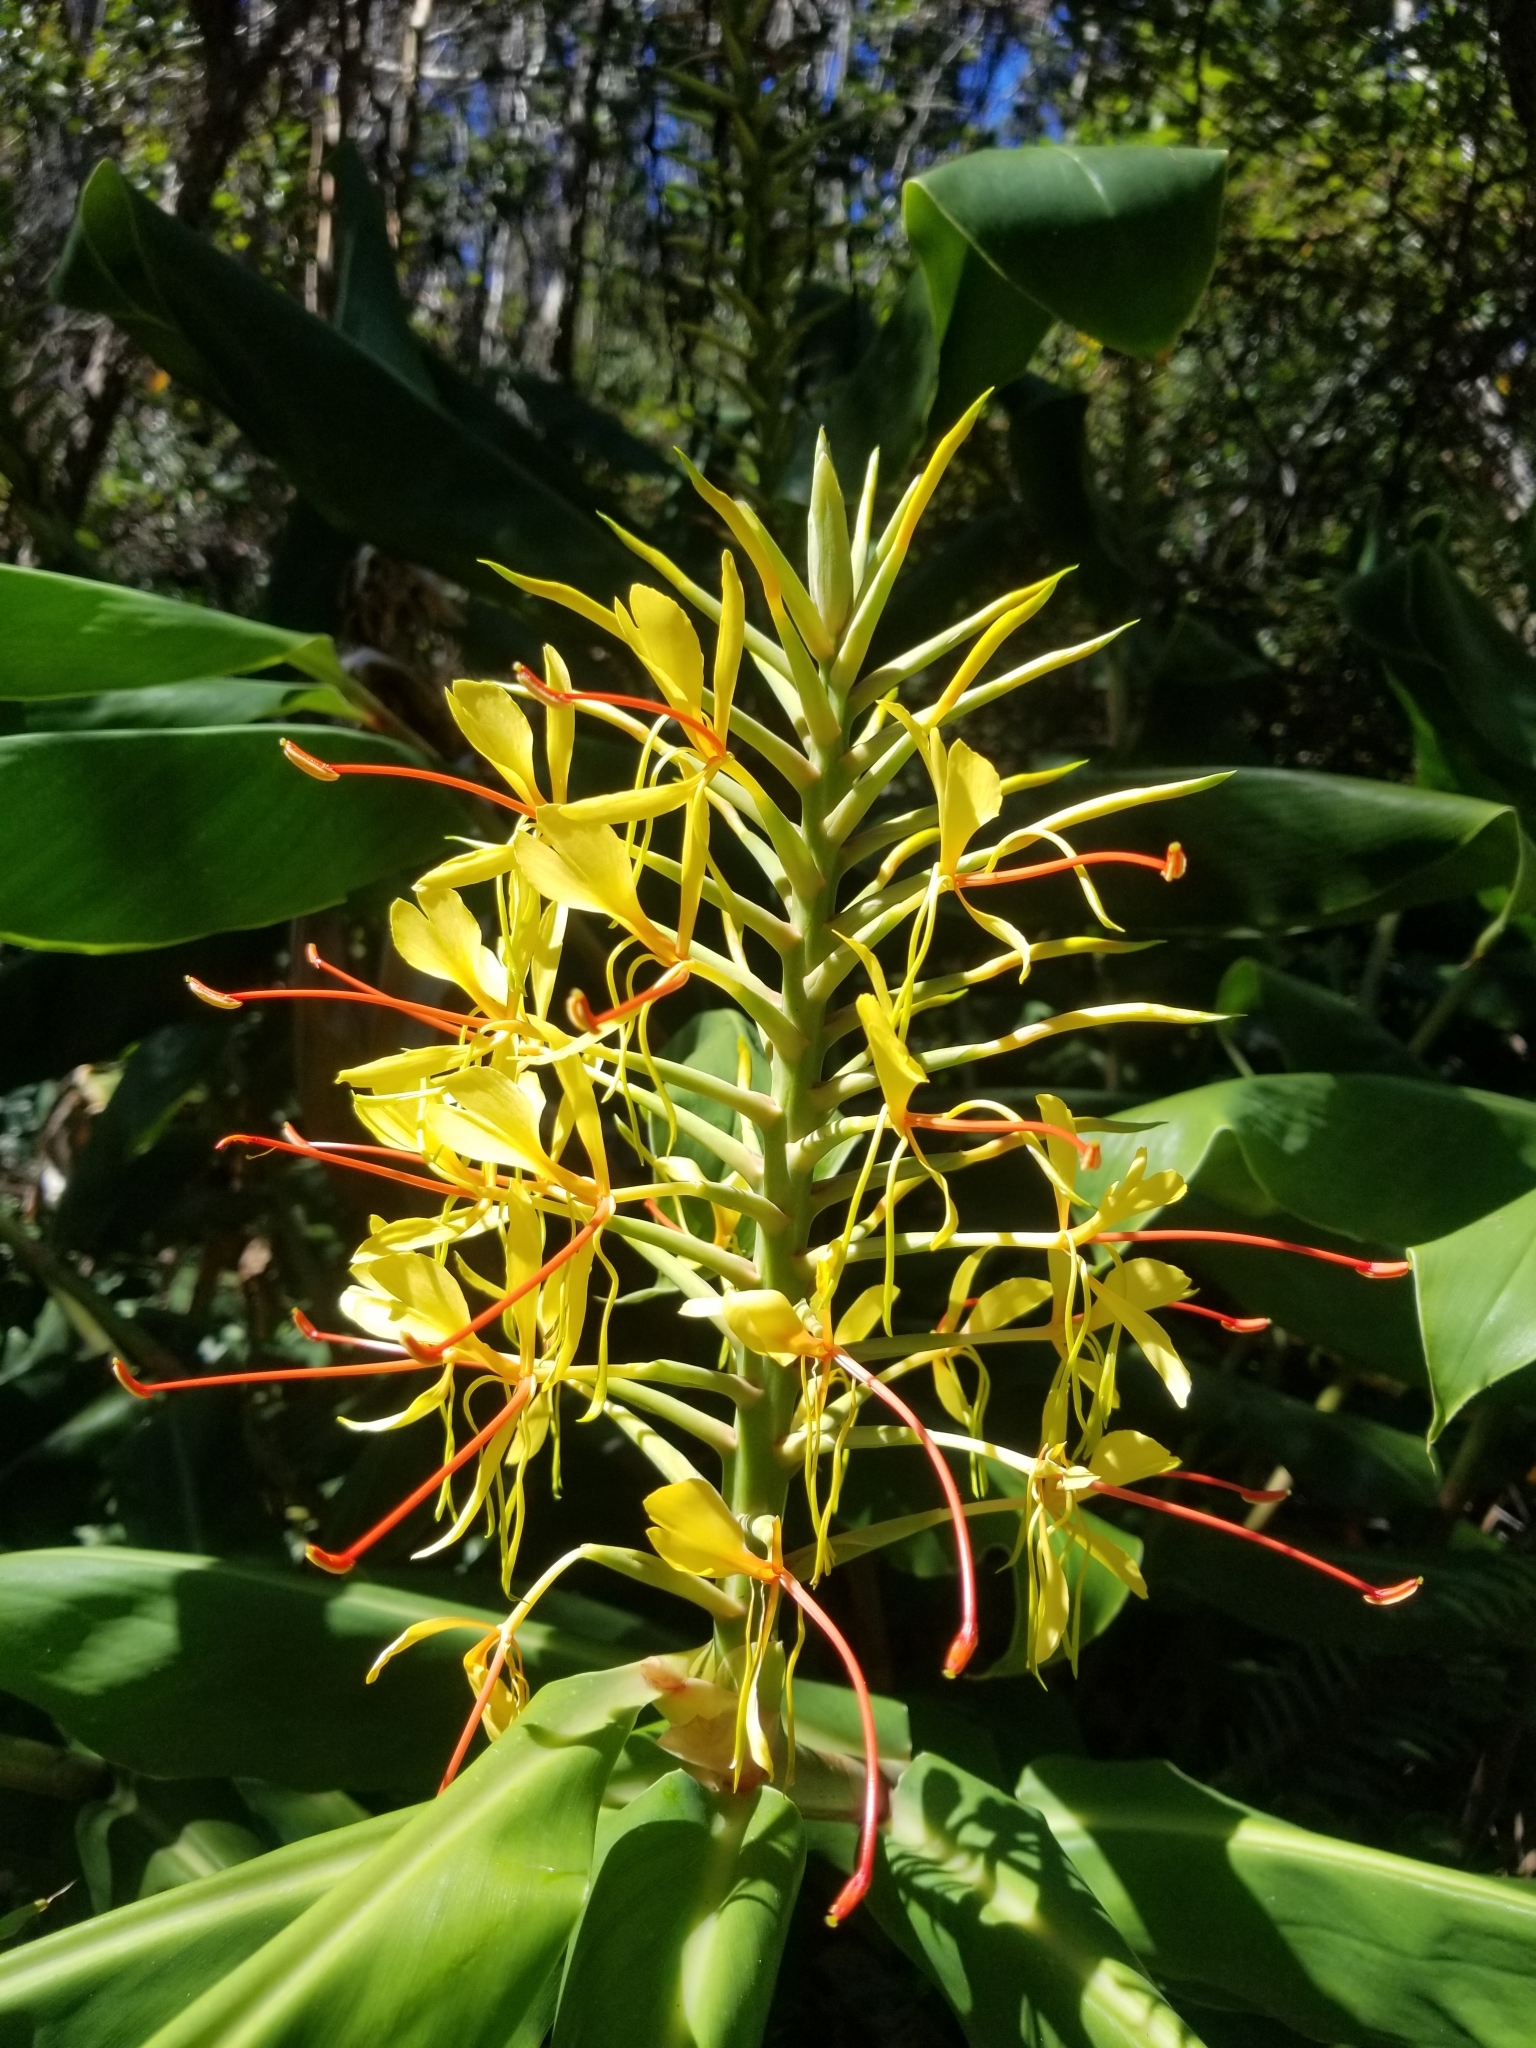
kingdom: Plantae
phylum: Tracheophyta
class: Liliopsida
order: Zingiberales
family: Zingiberaceae
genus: Hedychium
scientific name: Hedychium gardnerianum
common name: Himalayan ginger
